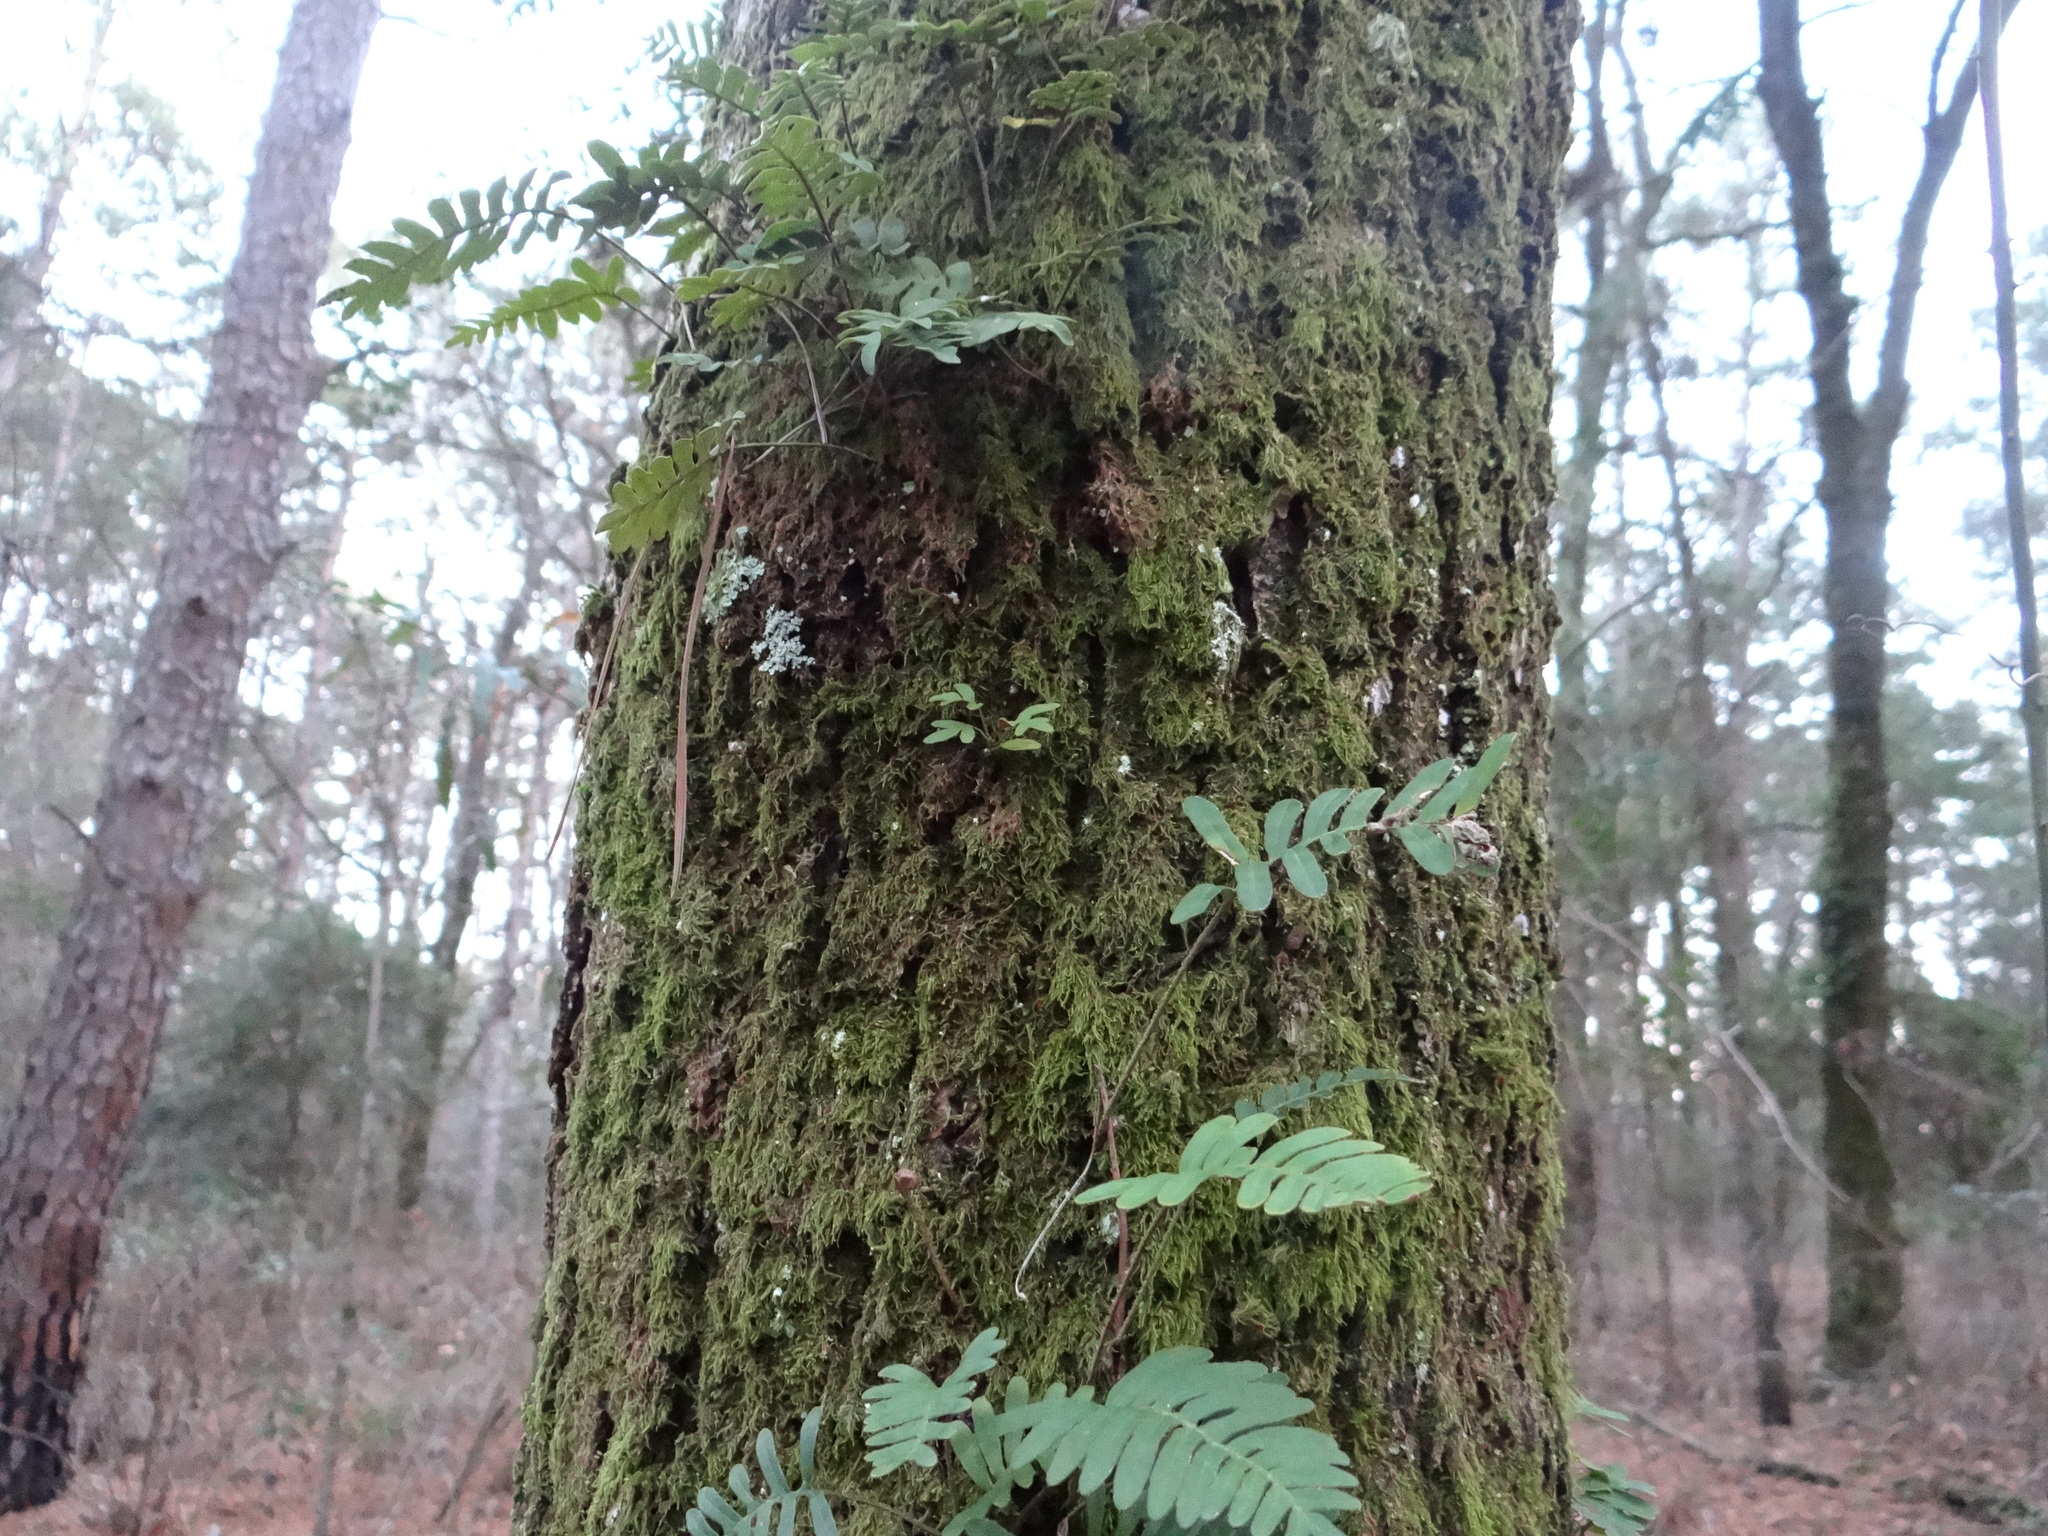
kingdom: Plantae
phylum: Tracheophyta
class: Polypodiopsida
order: Polypodiales
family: Polypodiaceae
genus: Pleopeltis
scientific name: Pleopeltis michauxiana
